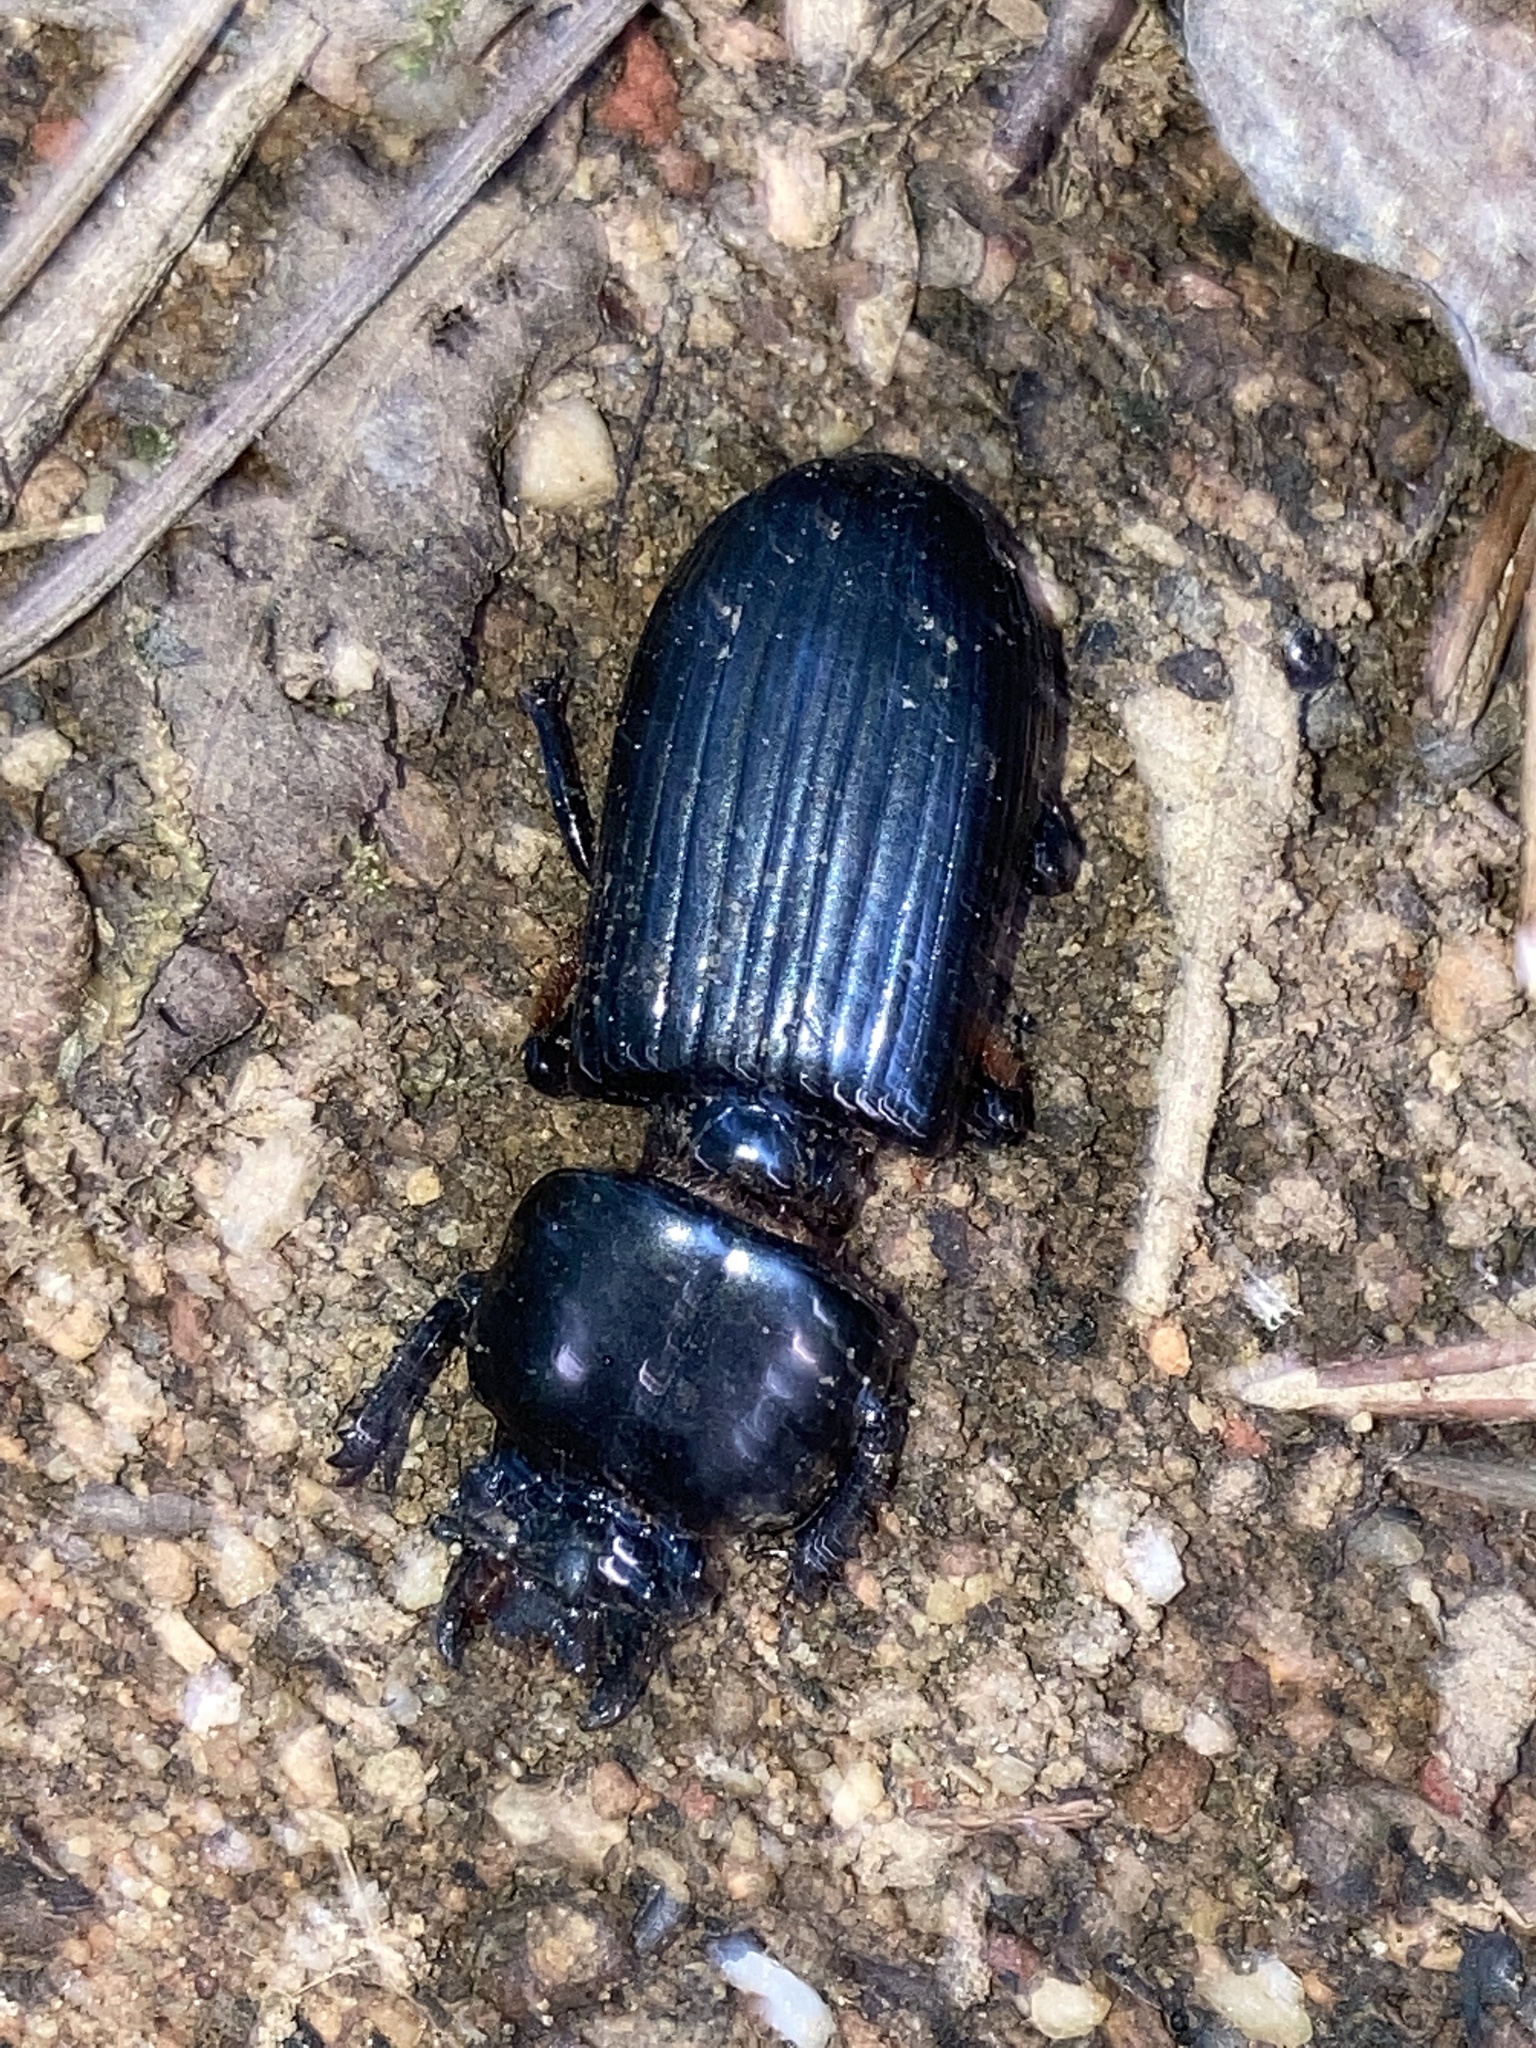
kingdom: Animalia
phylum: Arthropoda
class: Insecta
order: Coleoptera
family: Passalidae
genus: Odontotaenius
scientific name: Odontotaenius disjunctus
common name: Patent leather beetle
